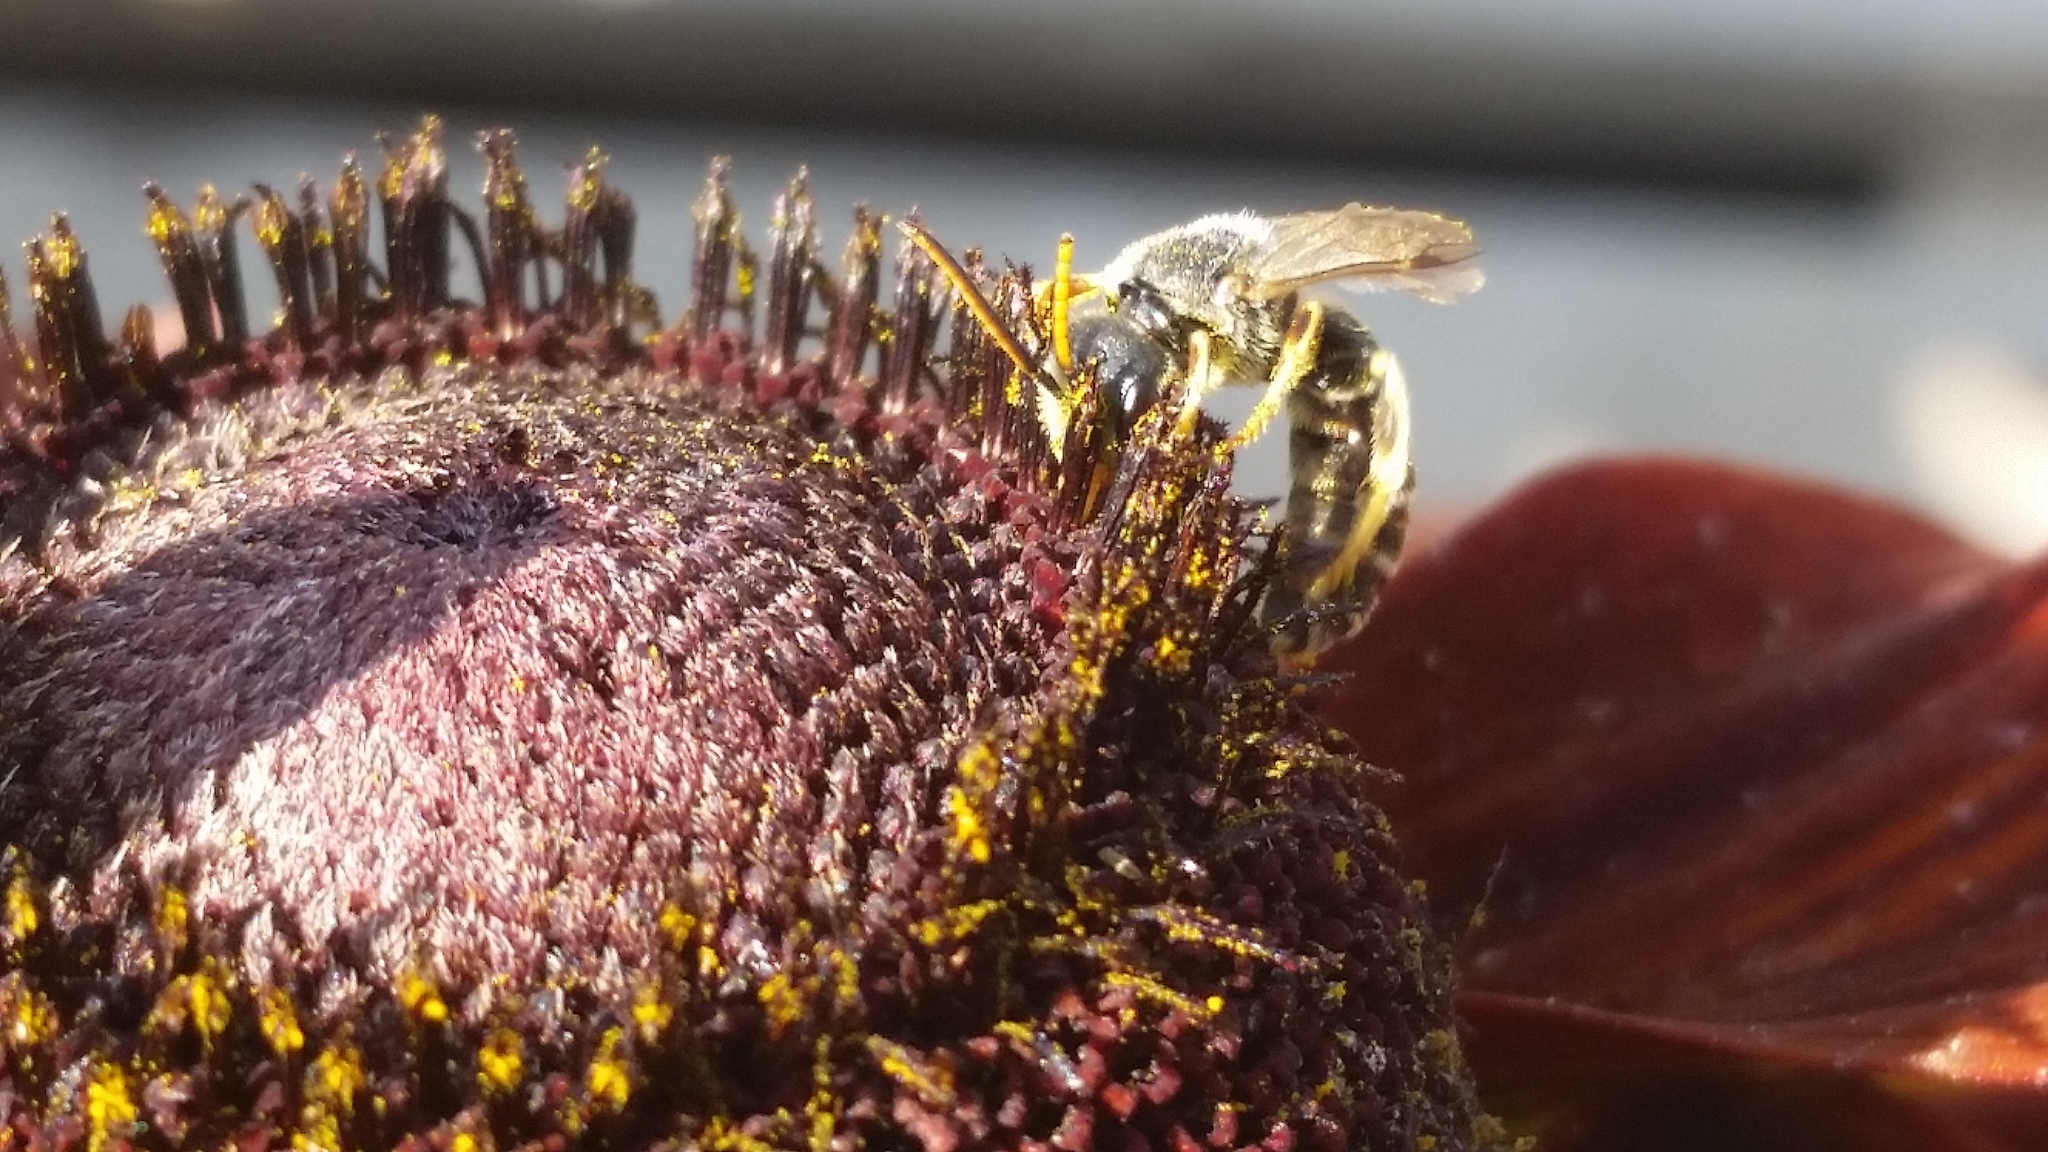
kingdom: Animalia
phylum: Arthropoda
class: Insecta
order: Hymenoptera
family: Halictidae
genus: Halictus
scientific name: Halictus ligatus
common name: Ligated furrow bee
